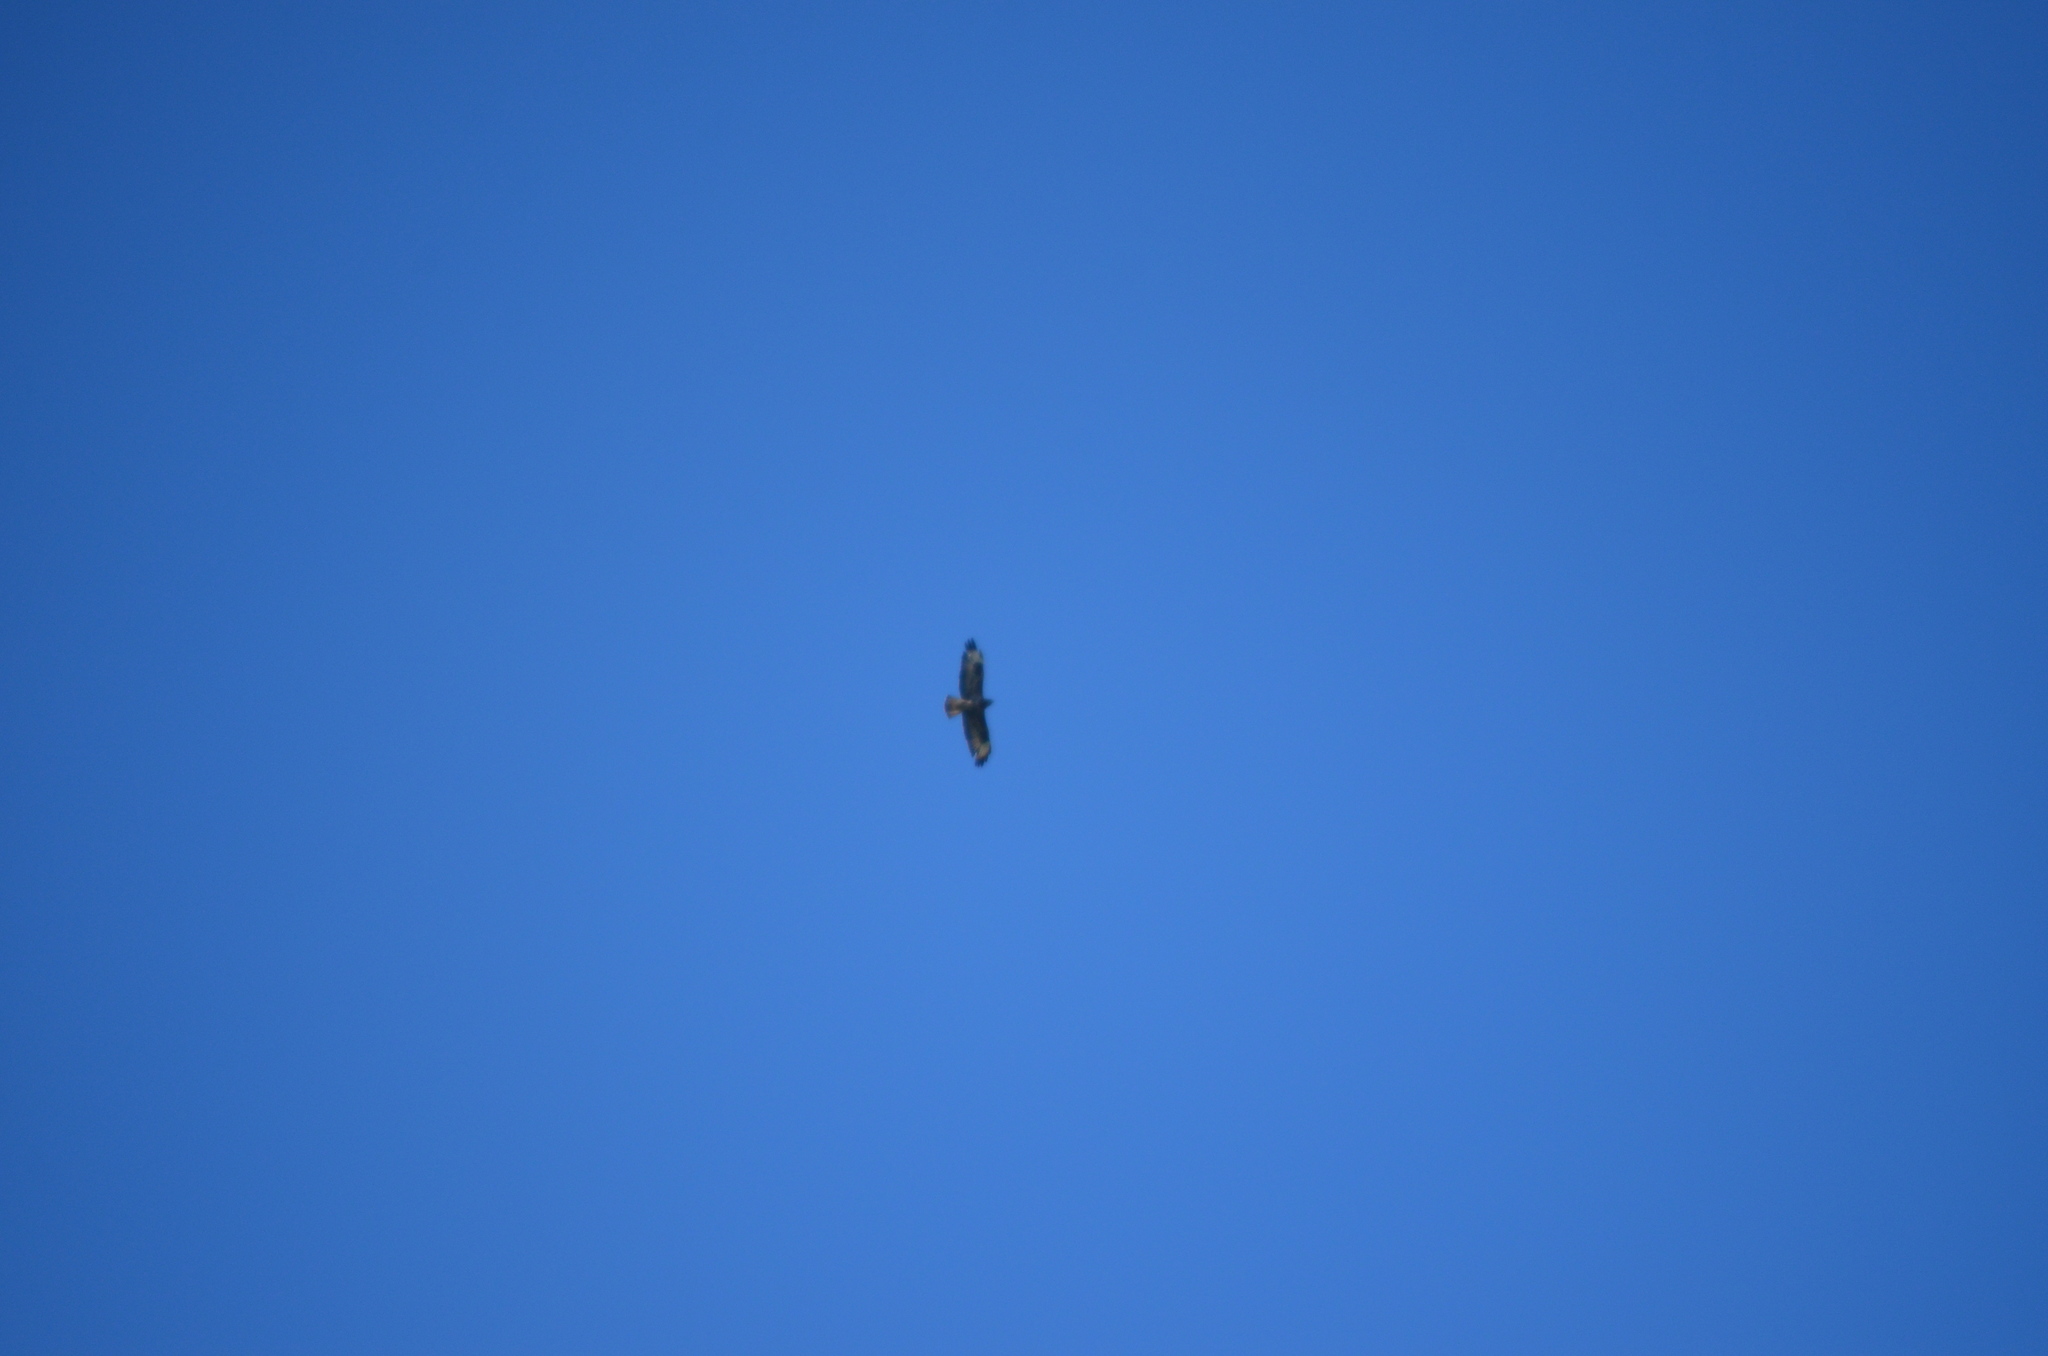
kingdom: Animalia
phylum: Chordata
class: Aves
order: Accipitriformes
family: Accipitridae
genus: Buteo
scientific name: Buteo buteo
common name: Common buzzard
